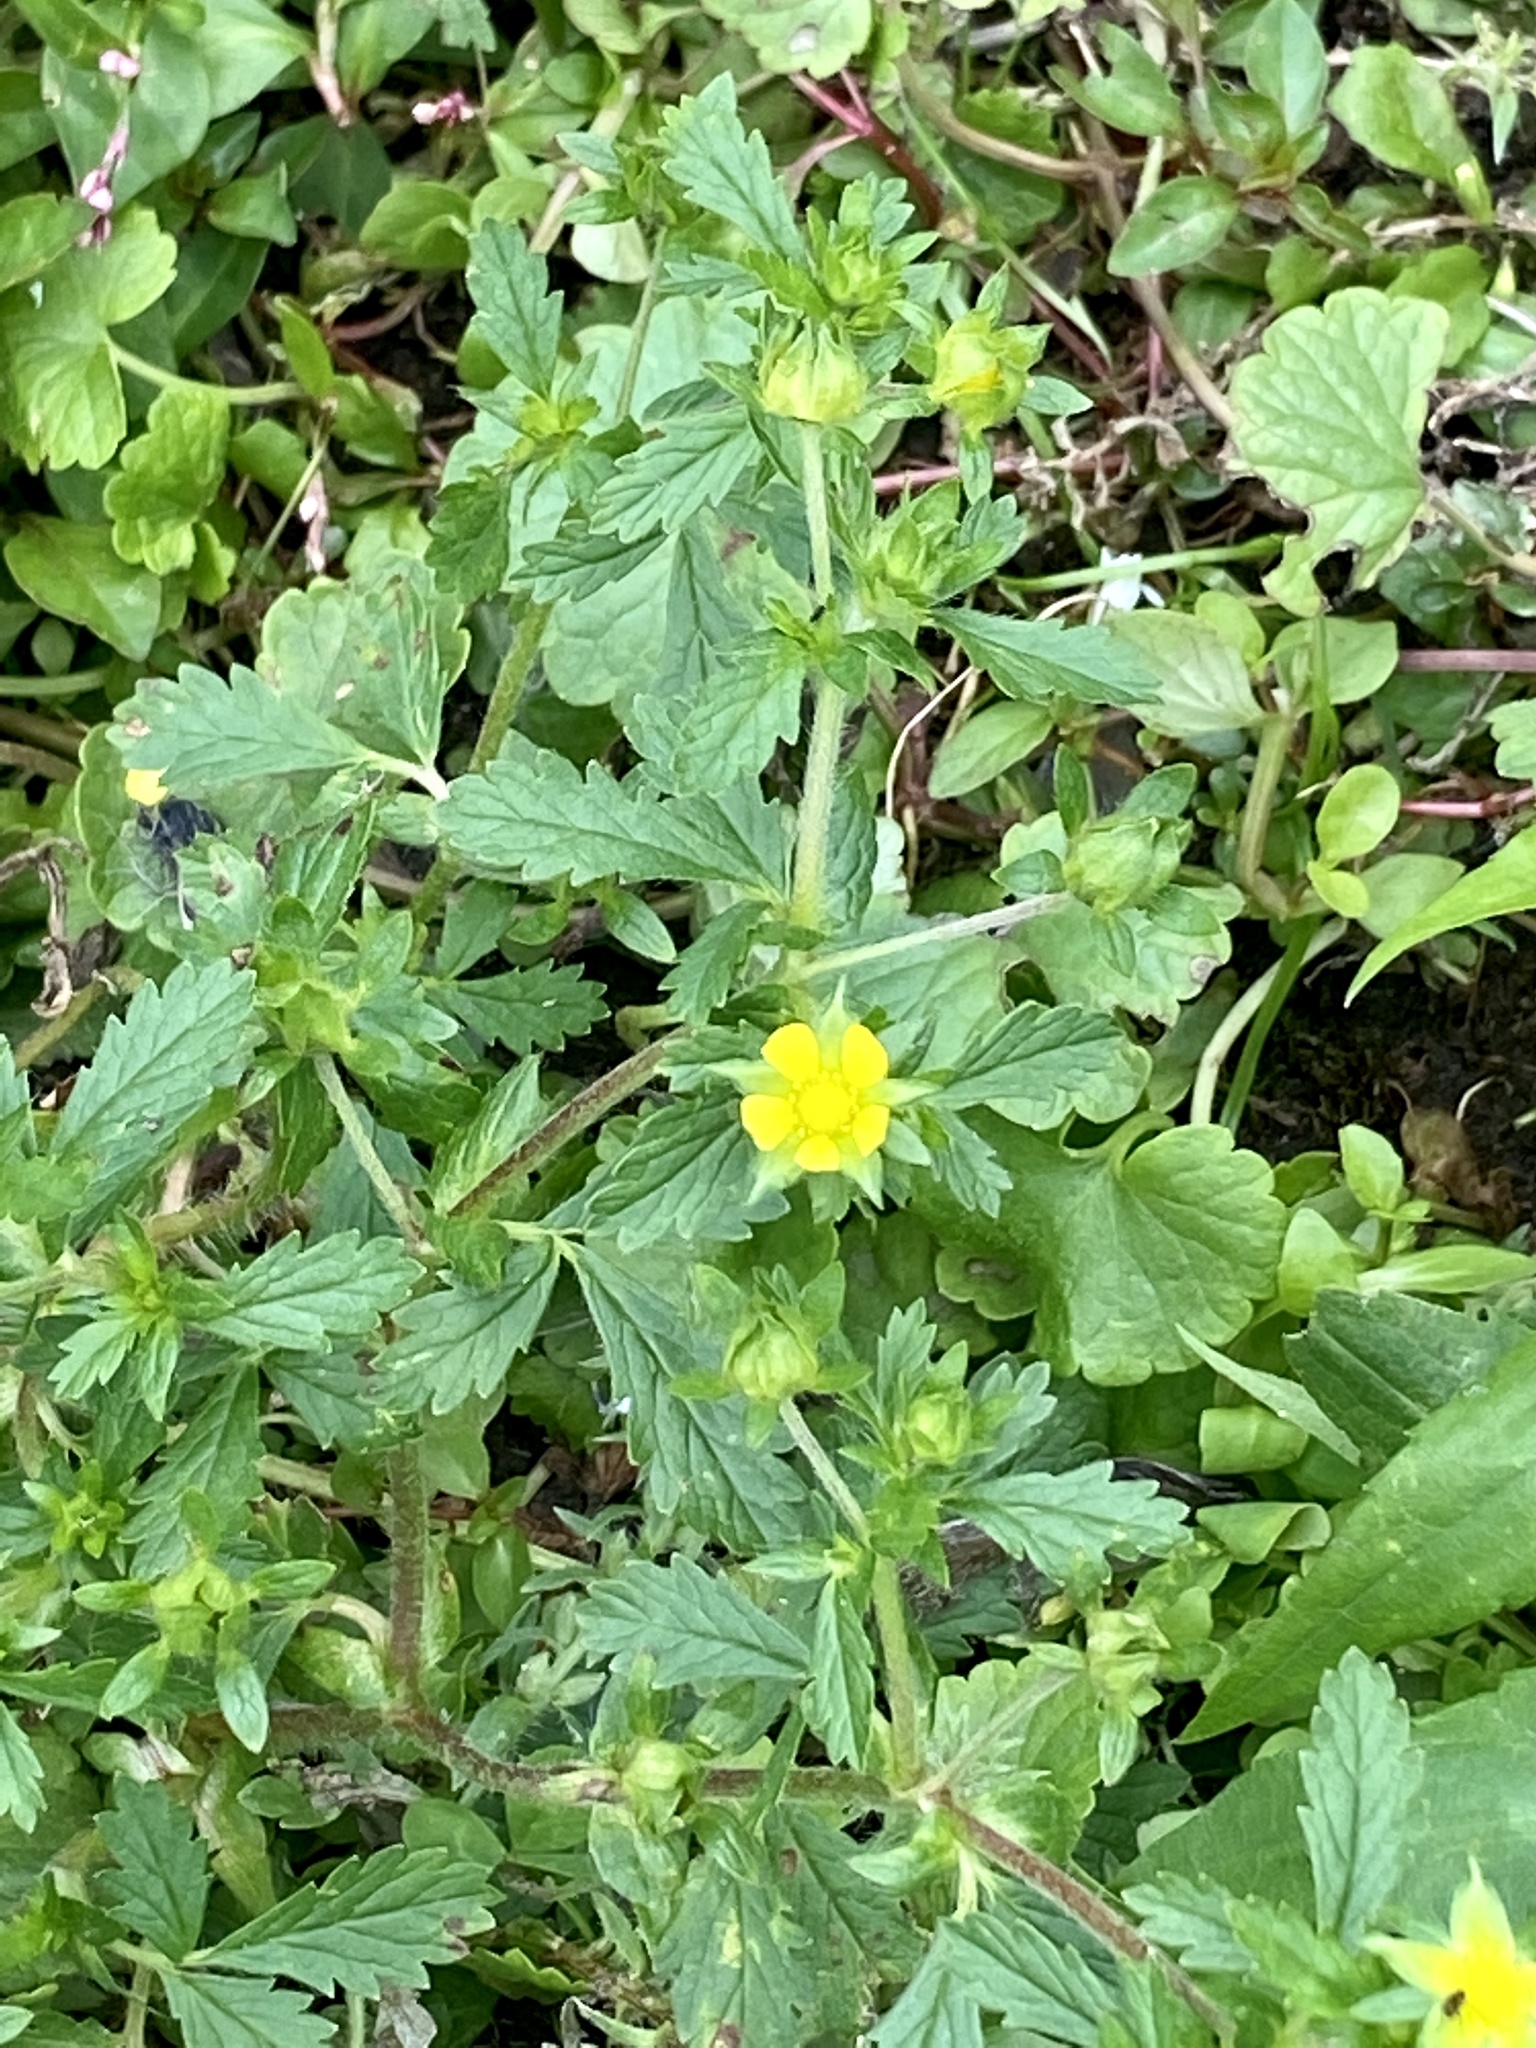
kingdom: Plantae
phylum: Tracheophyta
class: Magnoliopsida
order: Rosales
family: Rosaceae
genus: Potentilla
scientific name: Potentilla norvegica
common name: Ternate-leaved cinquefoil
